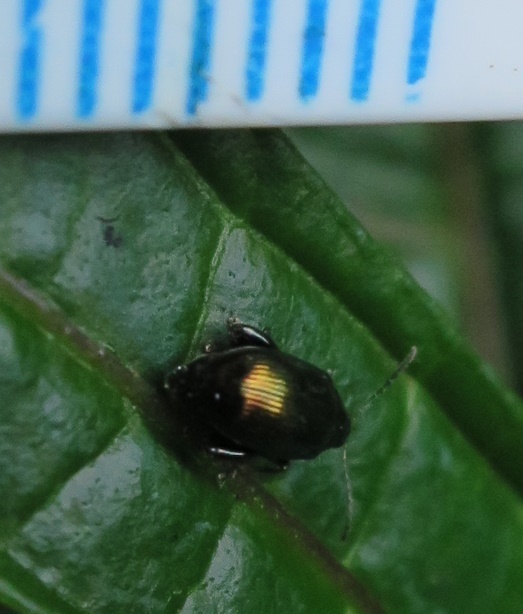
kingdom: Animalia
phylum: Arthropoda
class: Insecta
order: Coleoptera
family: Chrysomelidae
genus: Psylliodes
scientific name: Psylliodes brettinghami
